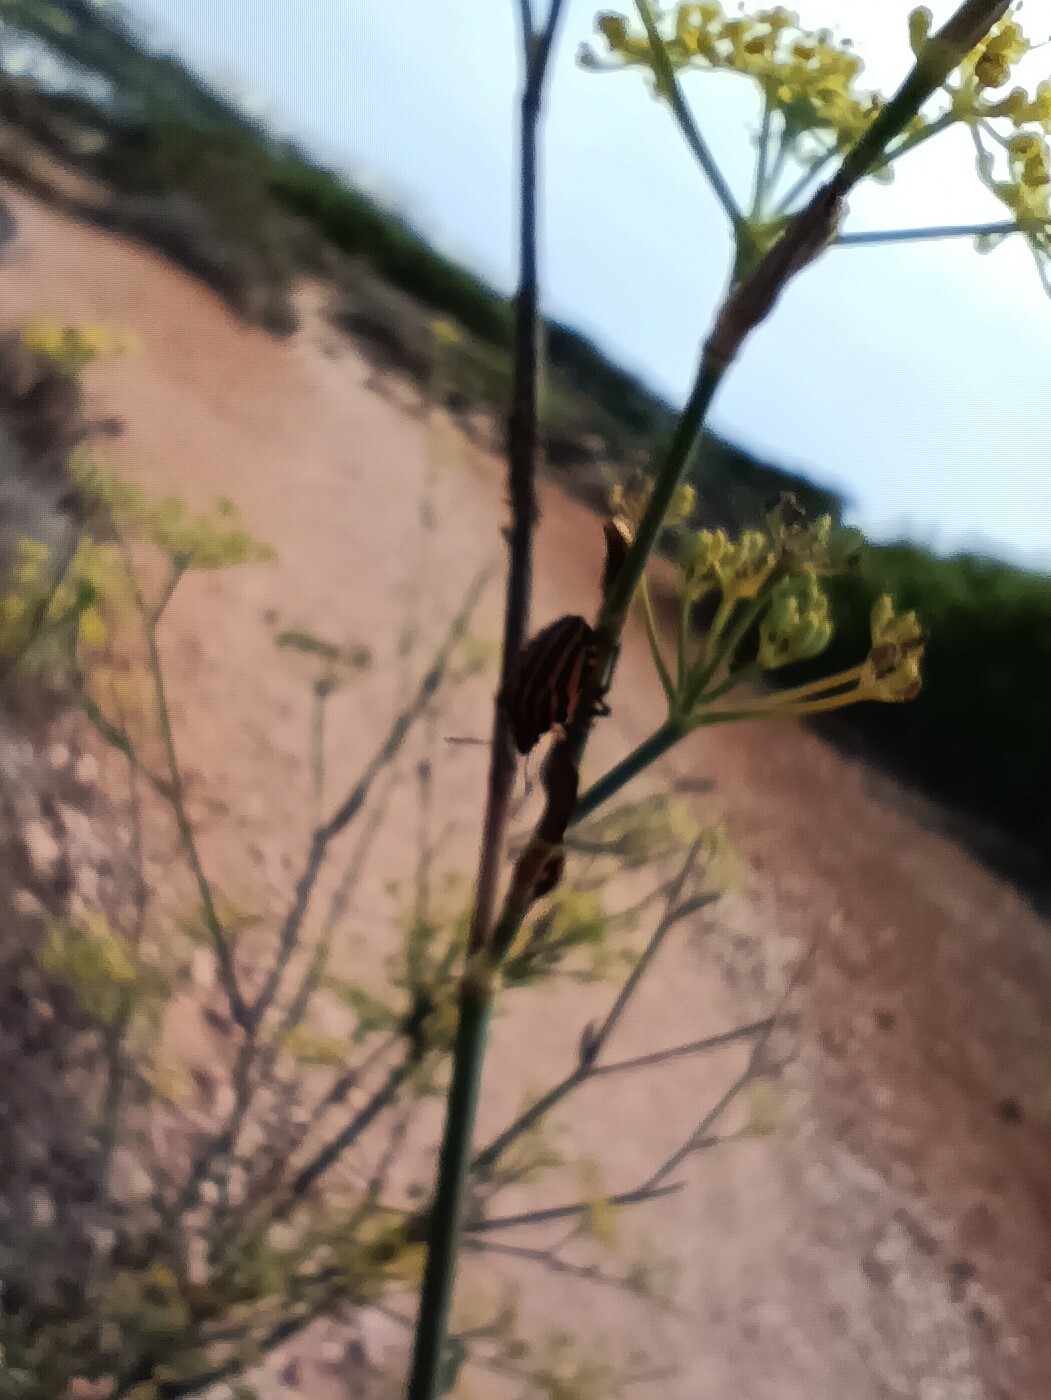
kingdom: Animalia
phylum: Arthropoda
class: Insecta
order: Hemiptera
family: Pentatomidae
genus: Graphosoma
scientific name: Graphosoma lineatum
